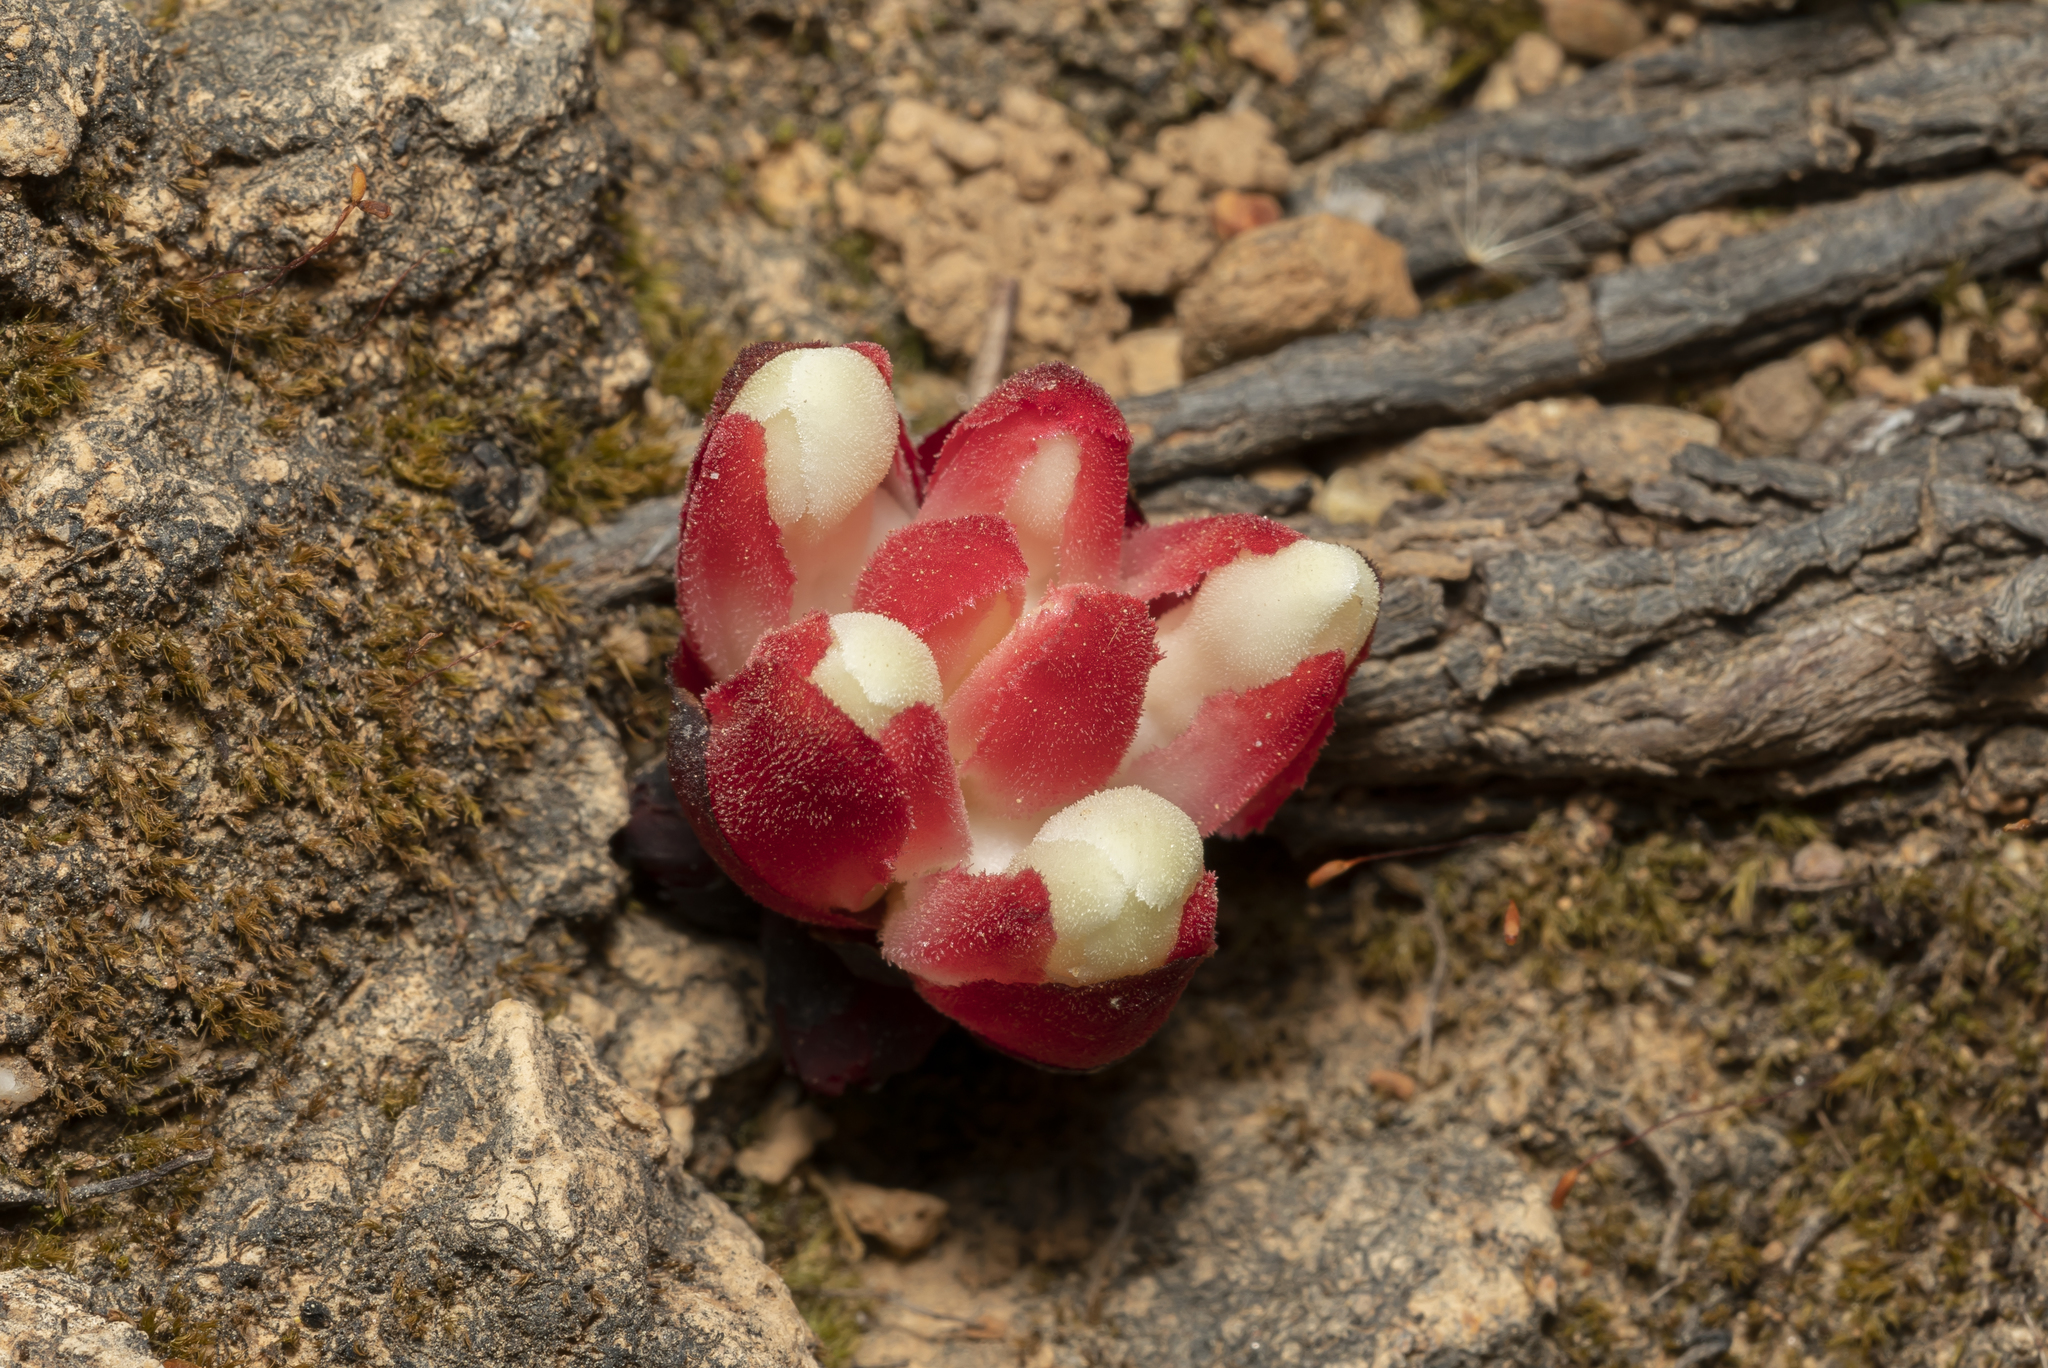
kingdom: Plantae
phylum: Tracheophyta
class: Magnoliopsida
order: Malvales
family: Cytinaceae
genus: Cytinus
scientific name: Cytinus ruber
